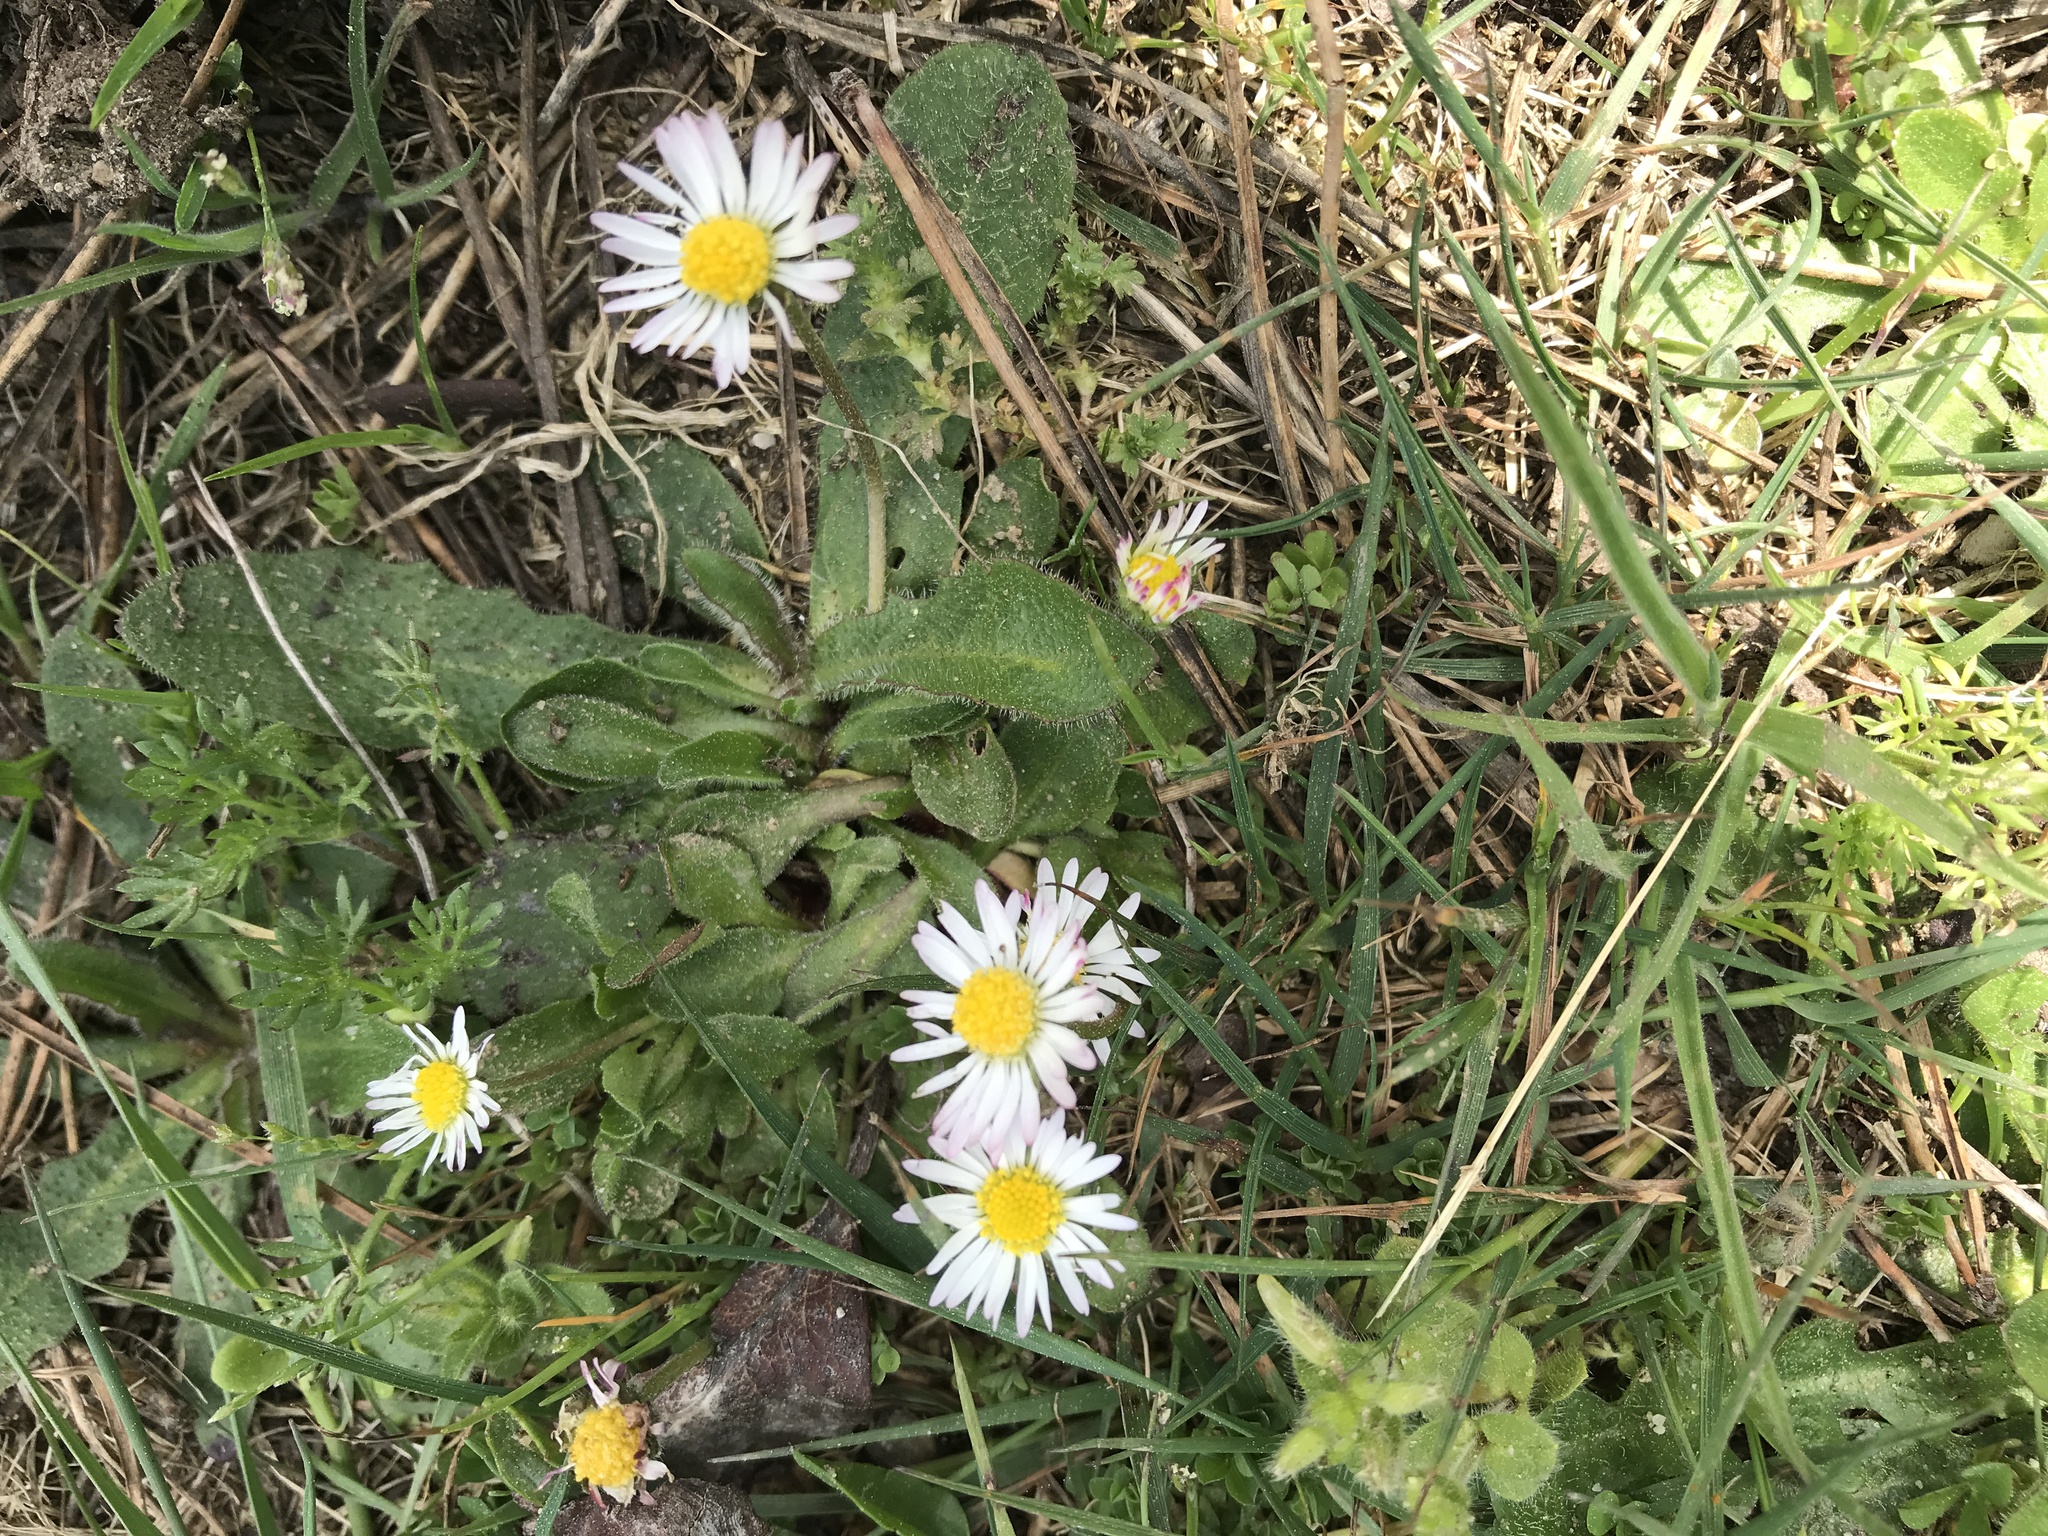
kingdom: Plantae
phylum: Tracheophyta
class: Magnoliopsida
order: Asterales
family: Asteraceae
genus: Bellis
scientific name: Bellis perennis
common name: Lawndaisy
